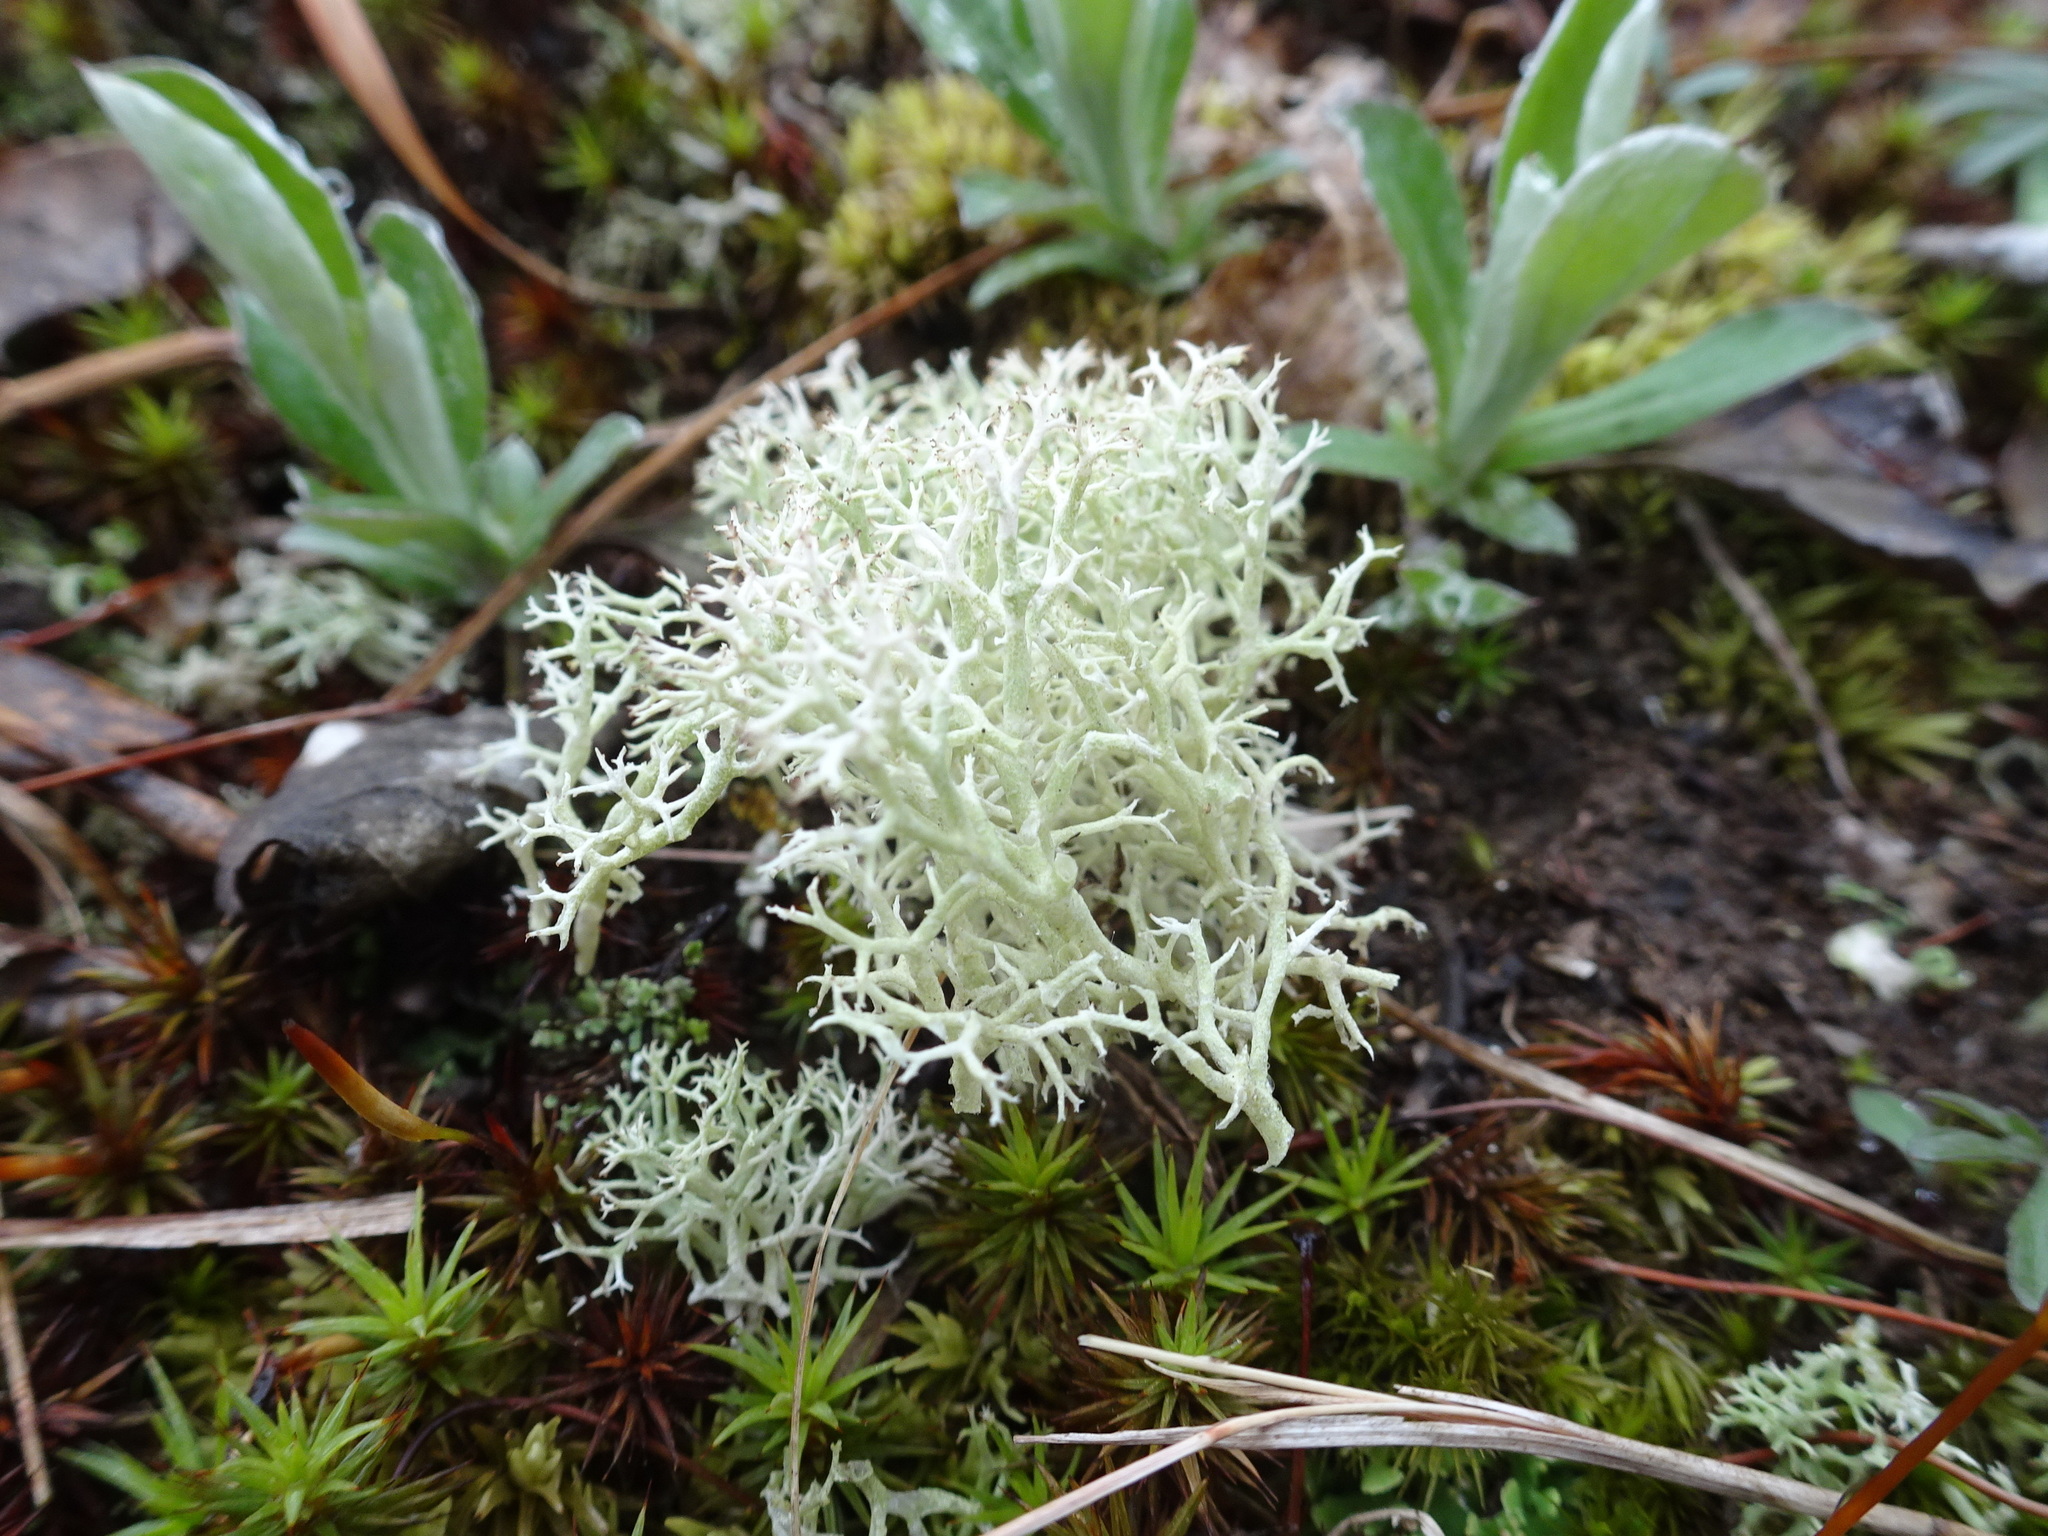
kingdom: Fungi
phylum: Ascomycota
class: Lecanoromycetes
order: Lecanorales
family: Cladoniaceae
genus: Cladonia
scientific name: Cladonia subtenuis
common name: Dixie reindeer lichen
